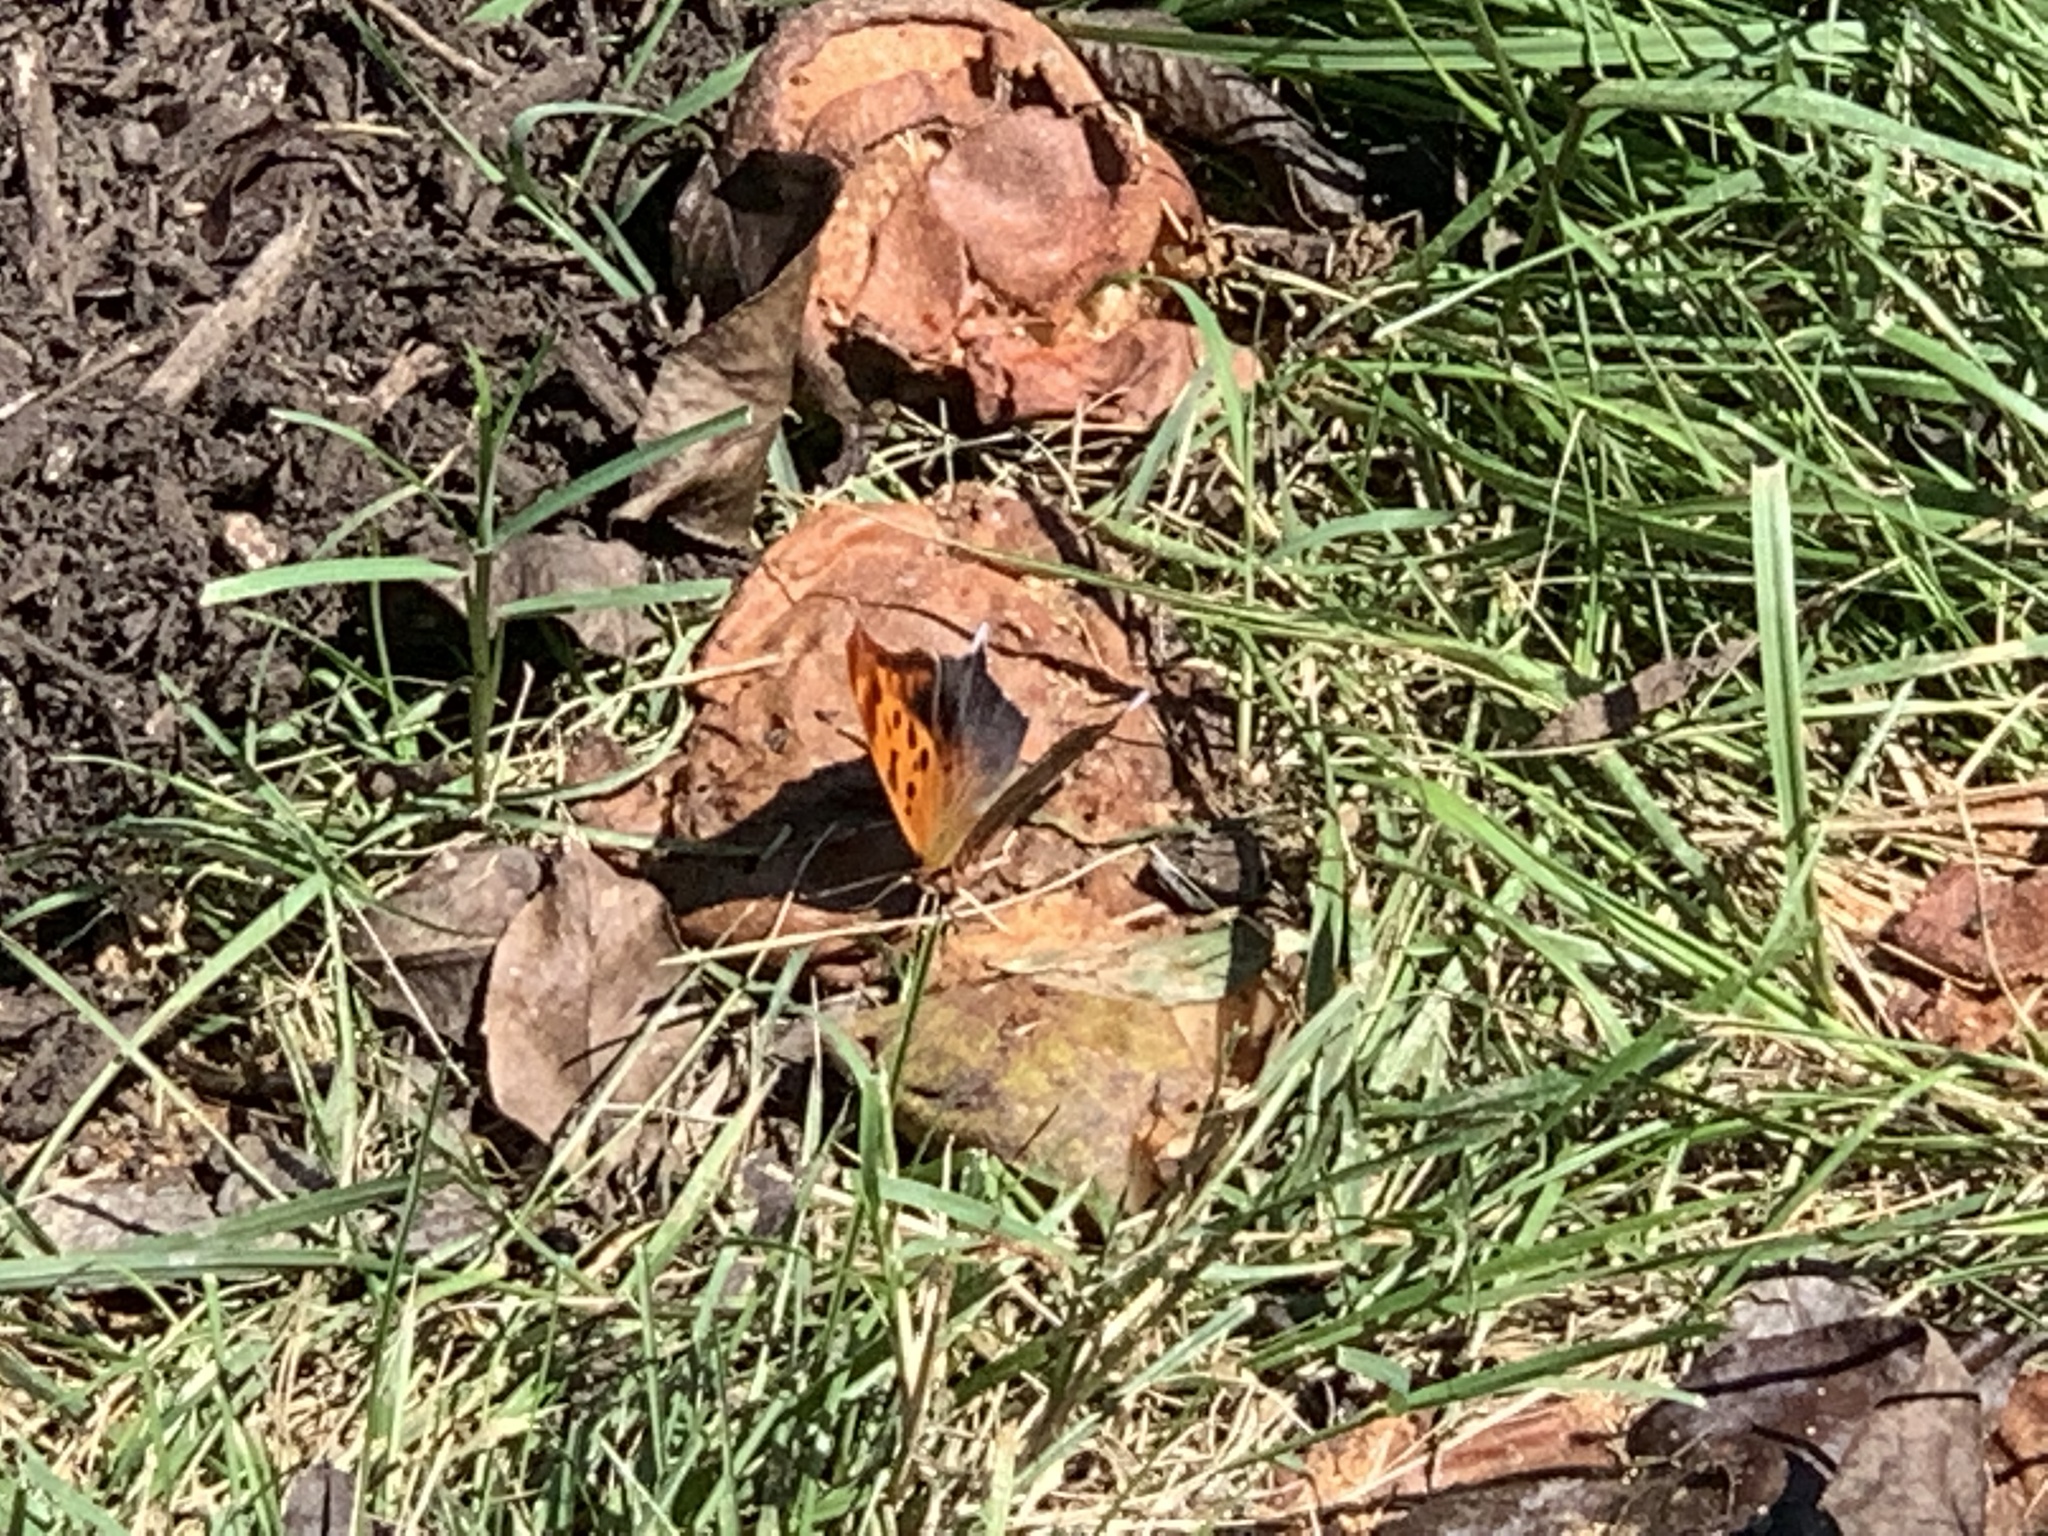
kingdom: Animalia
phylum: Arthropoda
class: Insecta
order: Lepidoptera
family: Nymphalidae
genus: Polygonia
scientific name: Polygonia interrogationis
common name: Question mark
